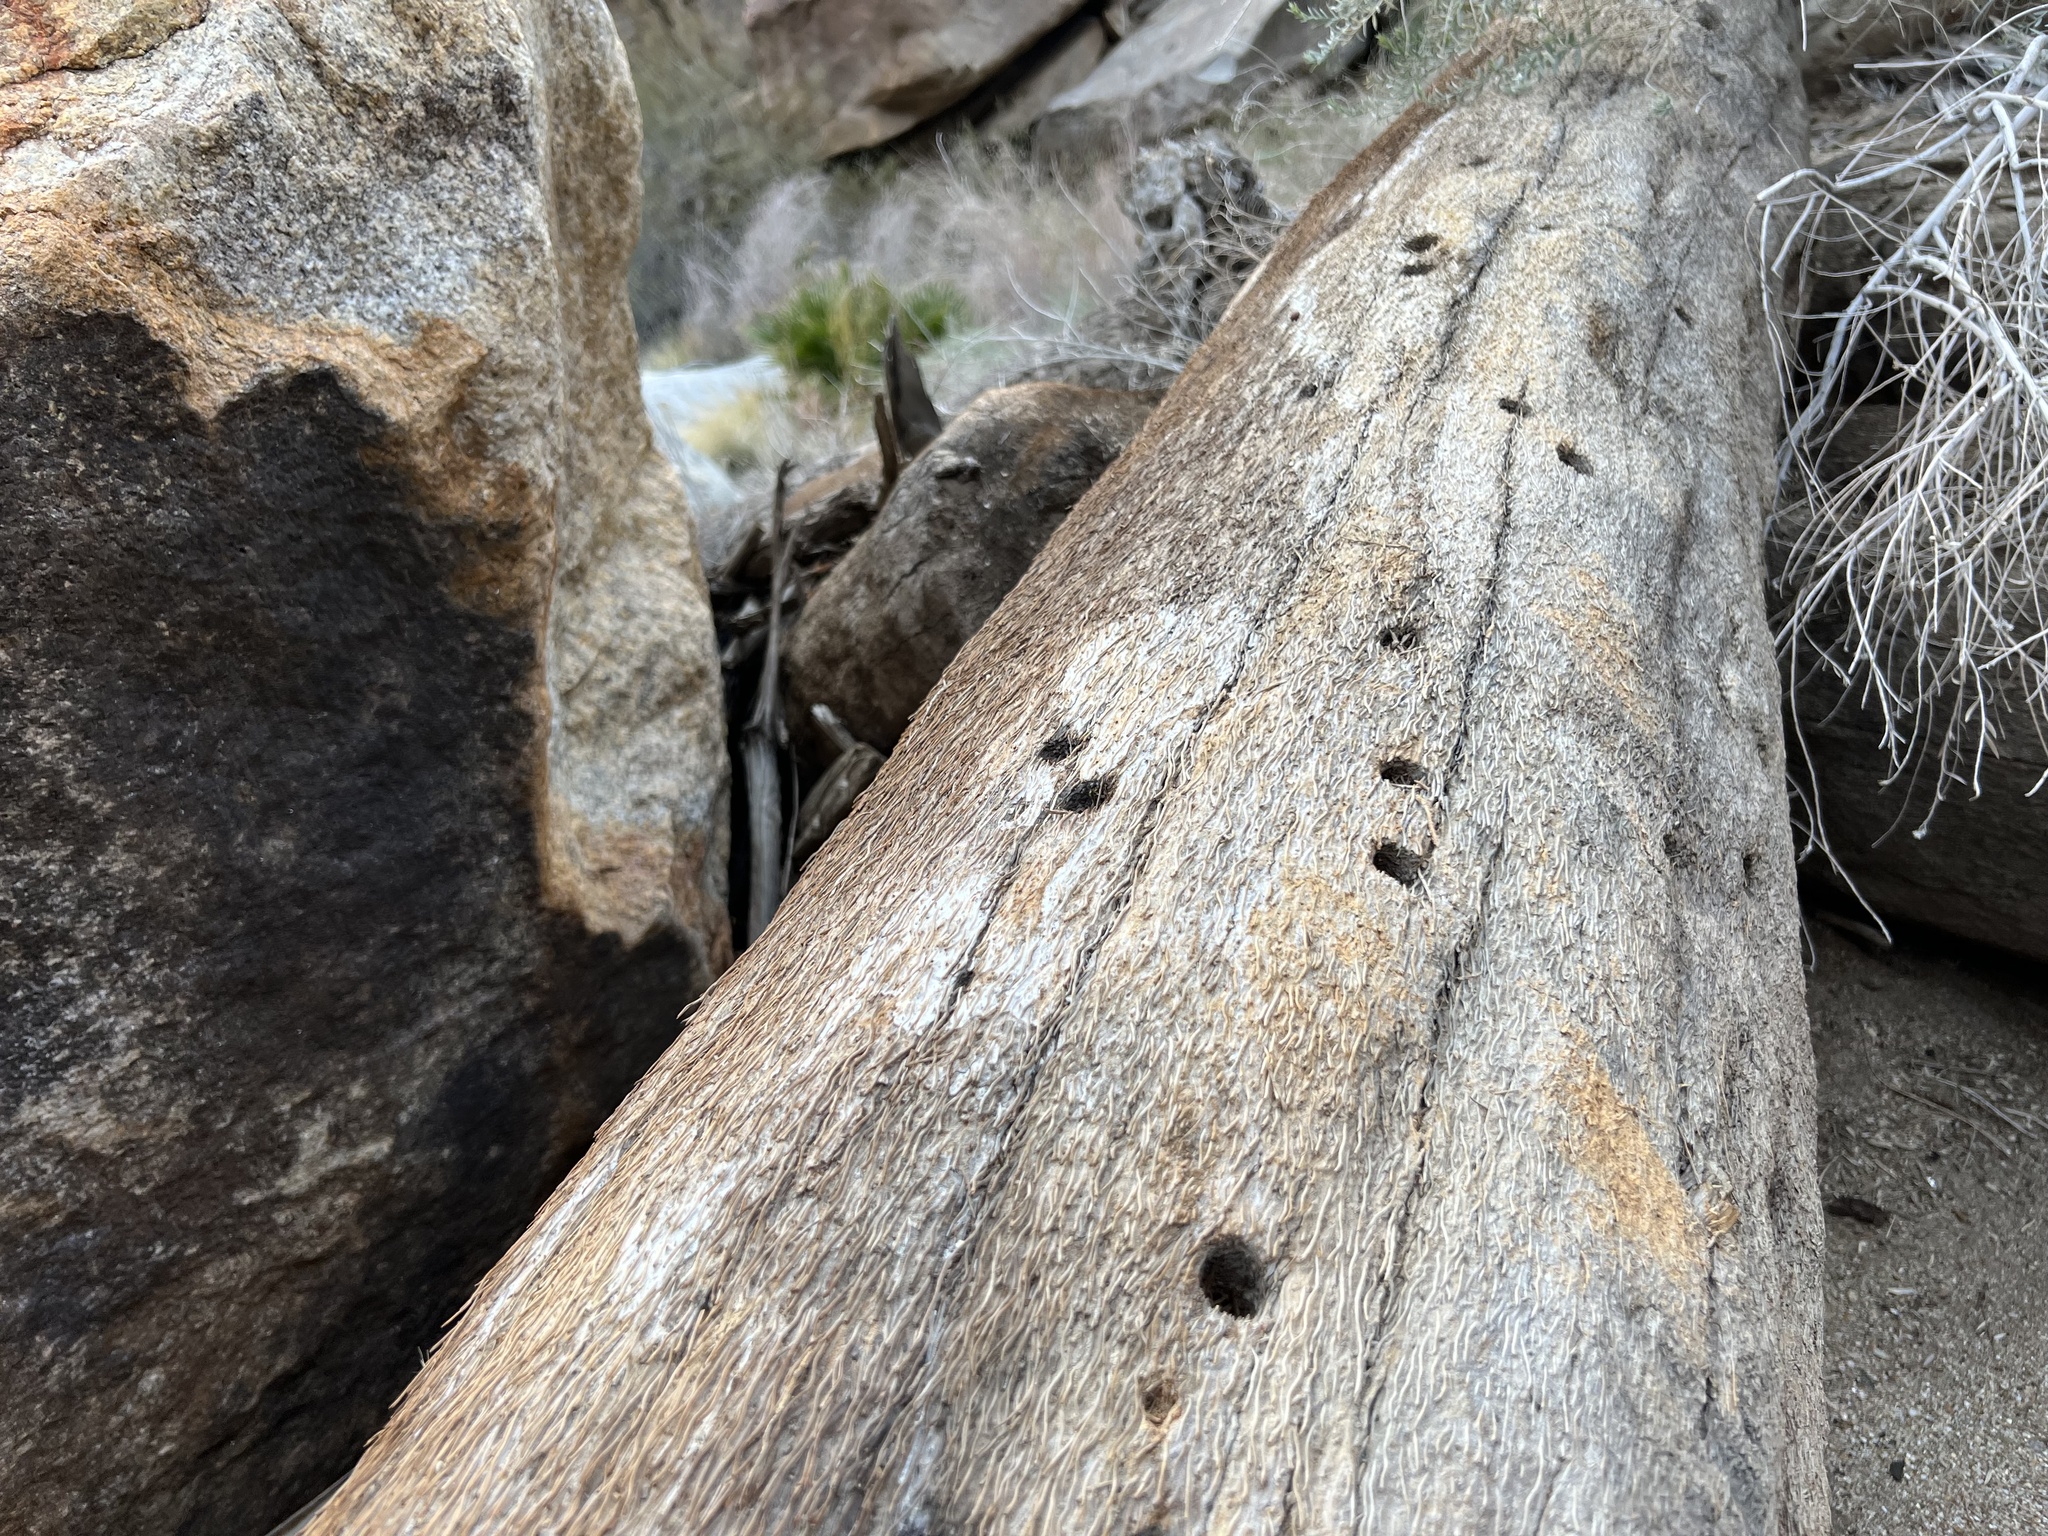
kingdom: Animalia
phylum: Arthropoda
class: Insecta
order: Coleoptera
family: Bostrichidae
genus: Dinapate
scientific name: Dinapate wrightii
